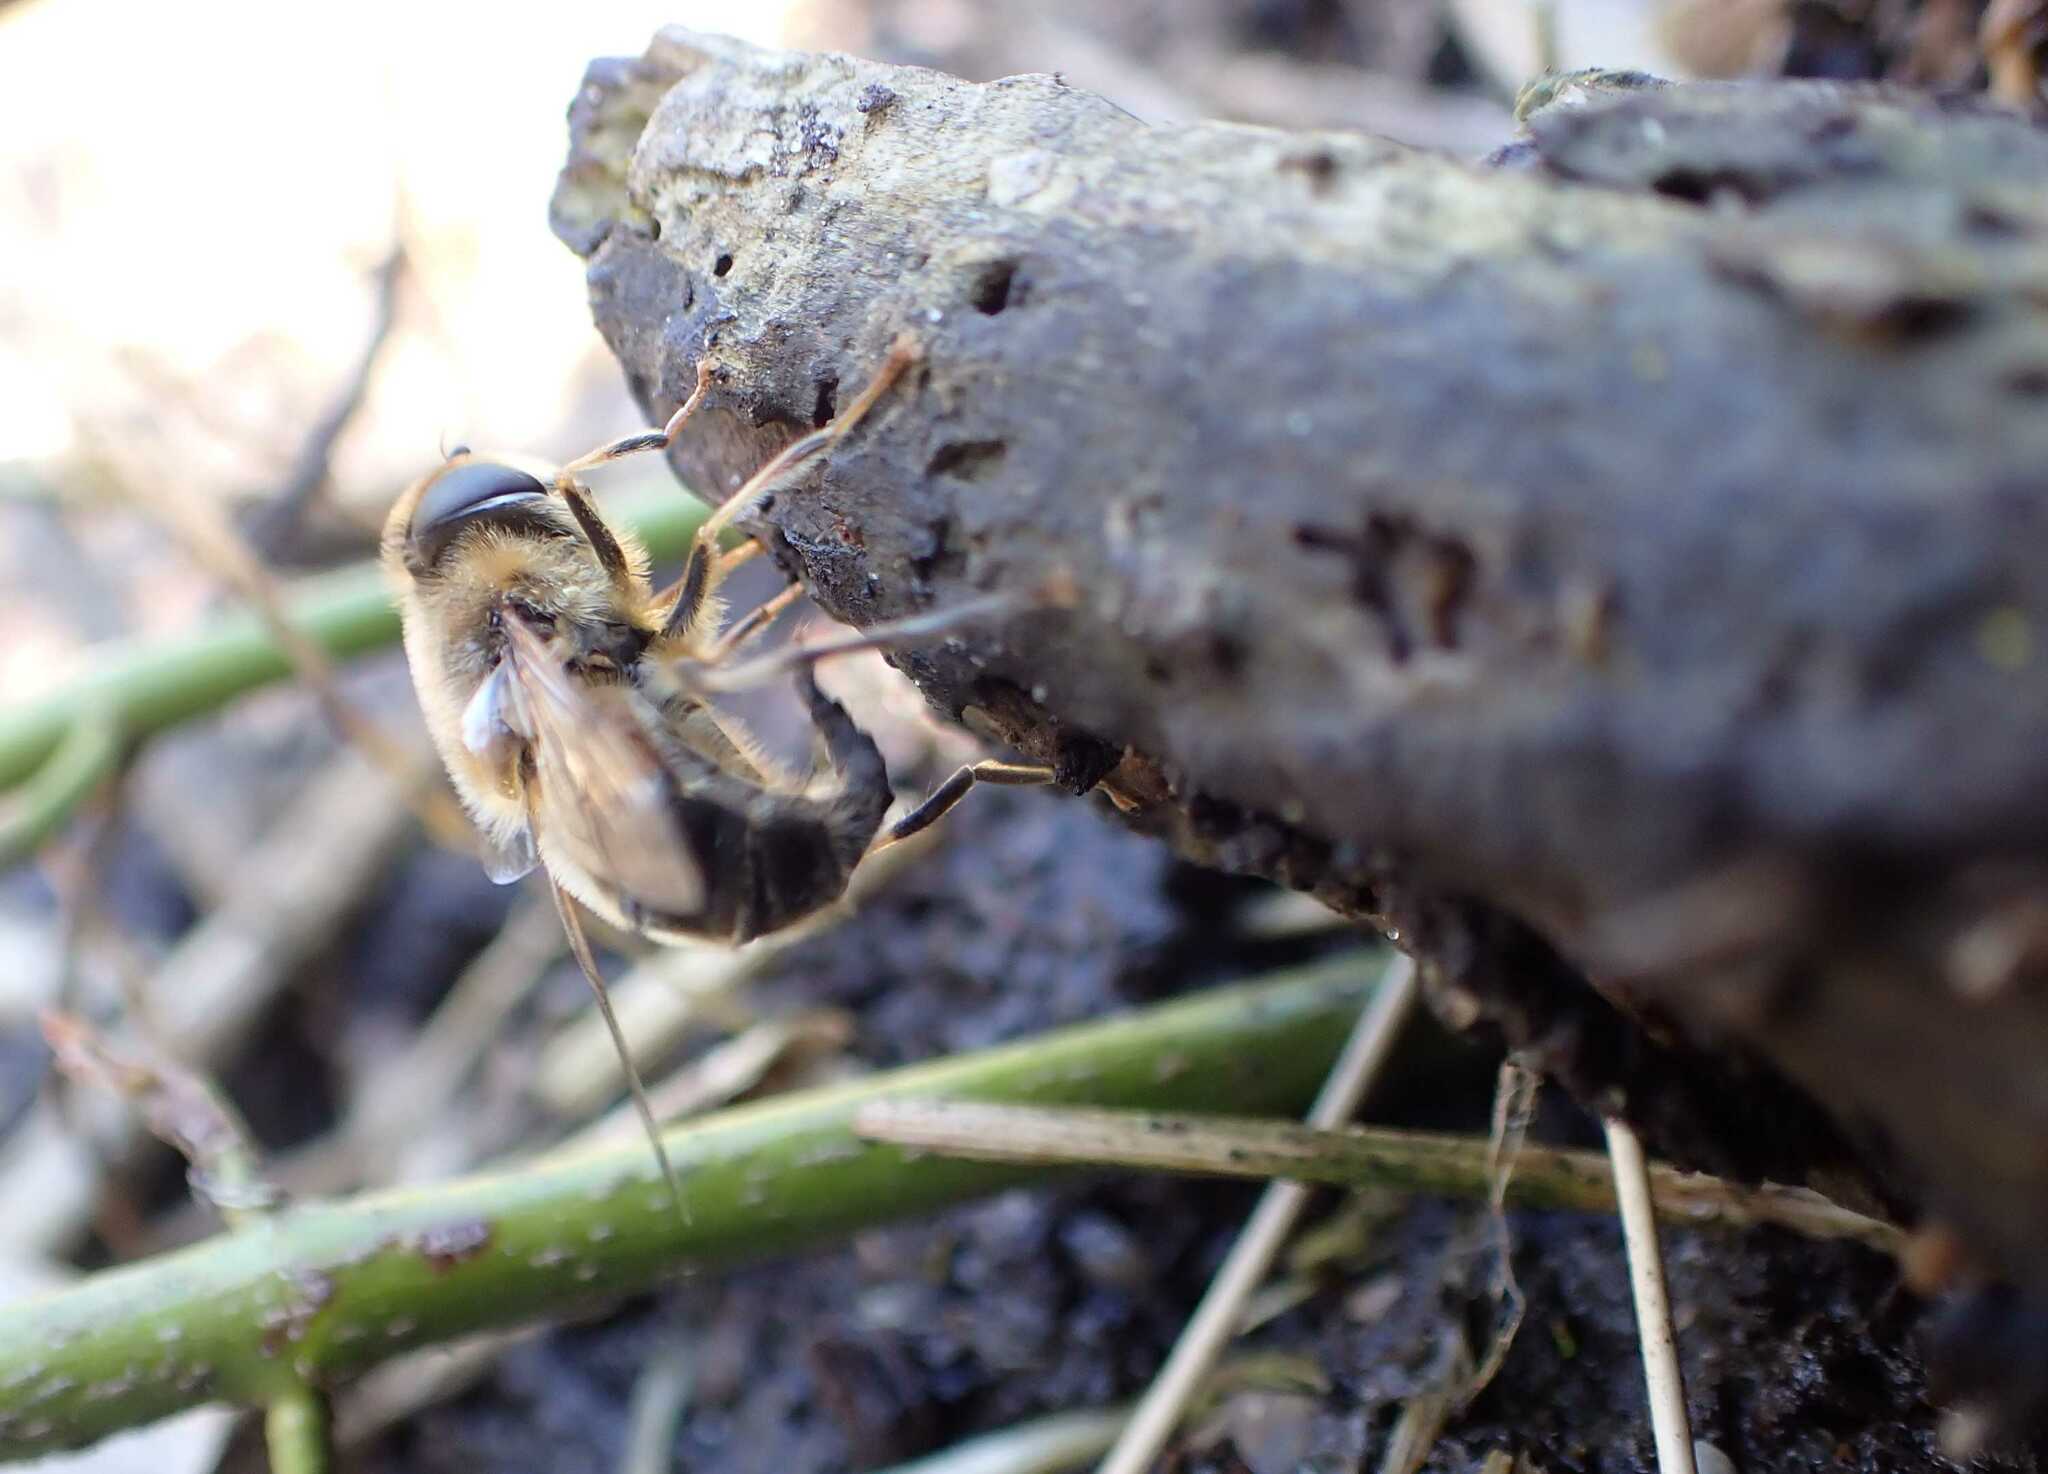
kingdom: Animalia
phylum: Arthropoda
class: Insecta
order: Diptera
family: Syrphidae
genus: Eristalis
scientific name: Eristalis pertinax
